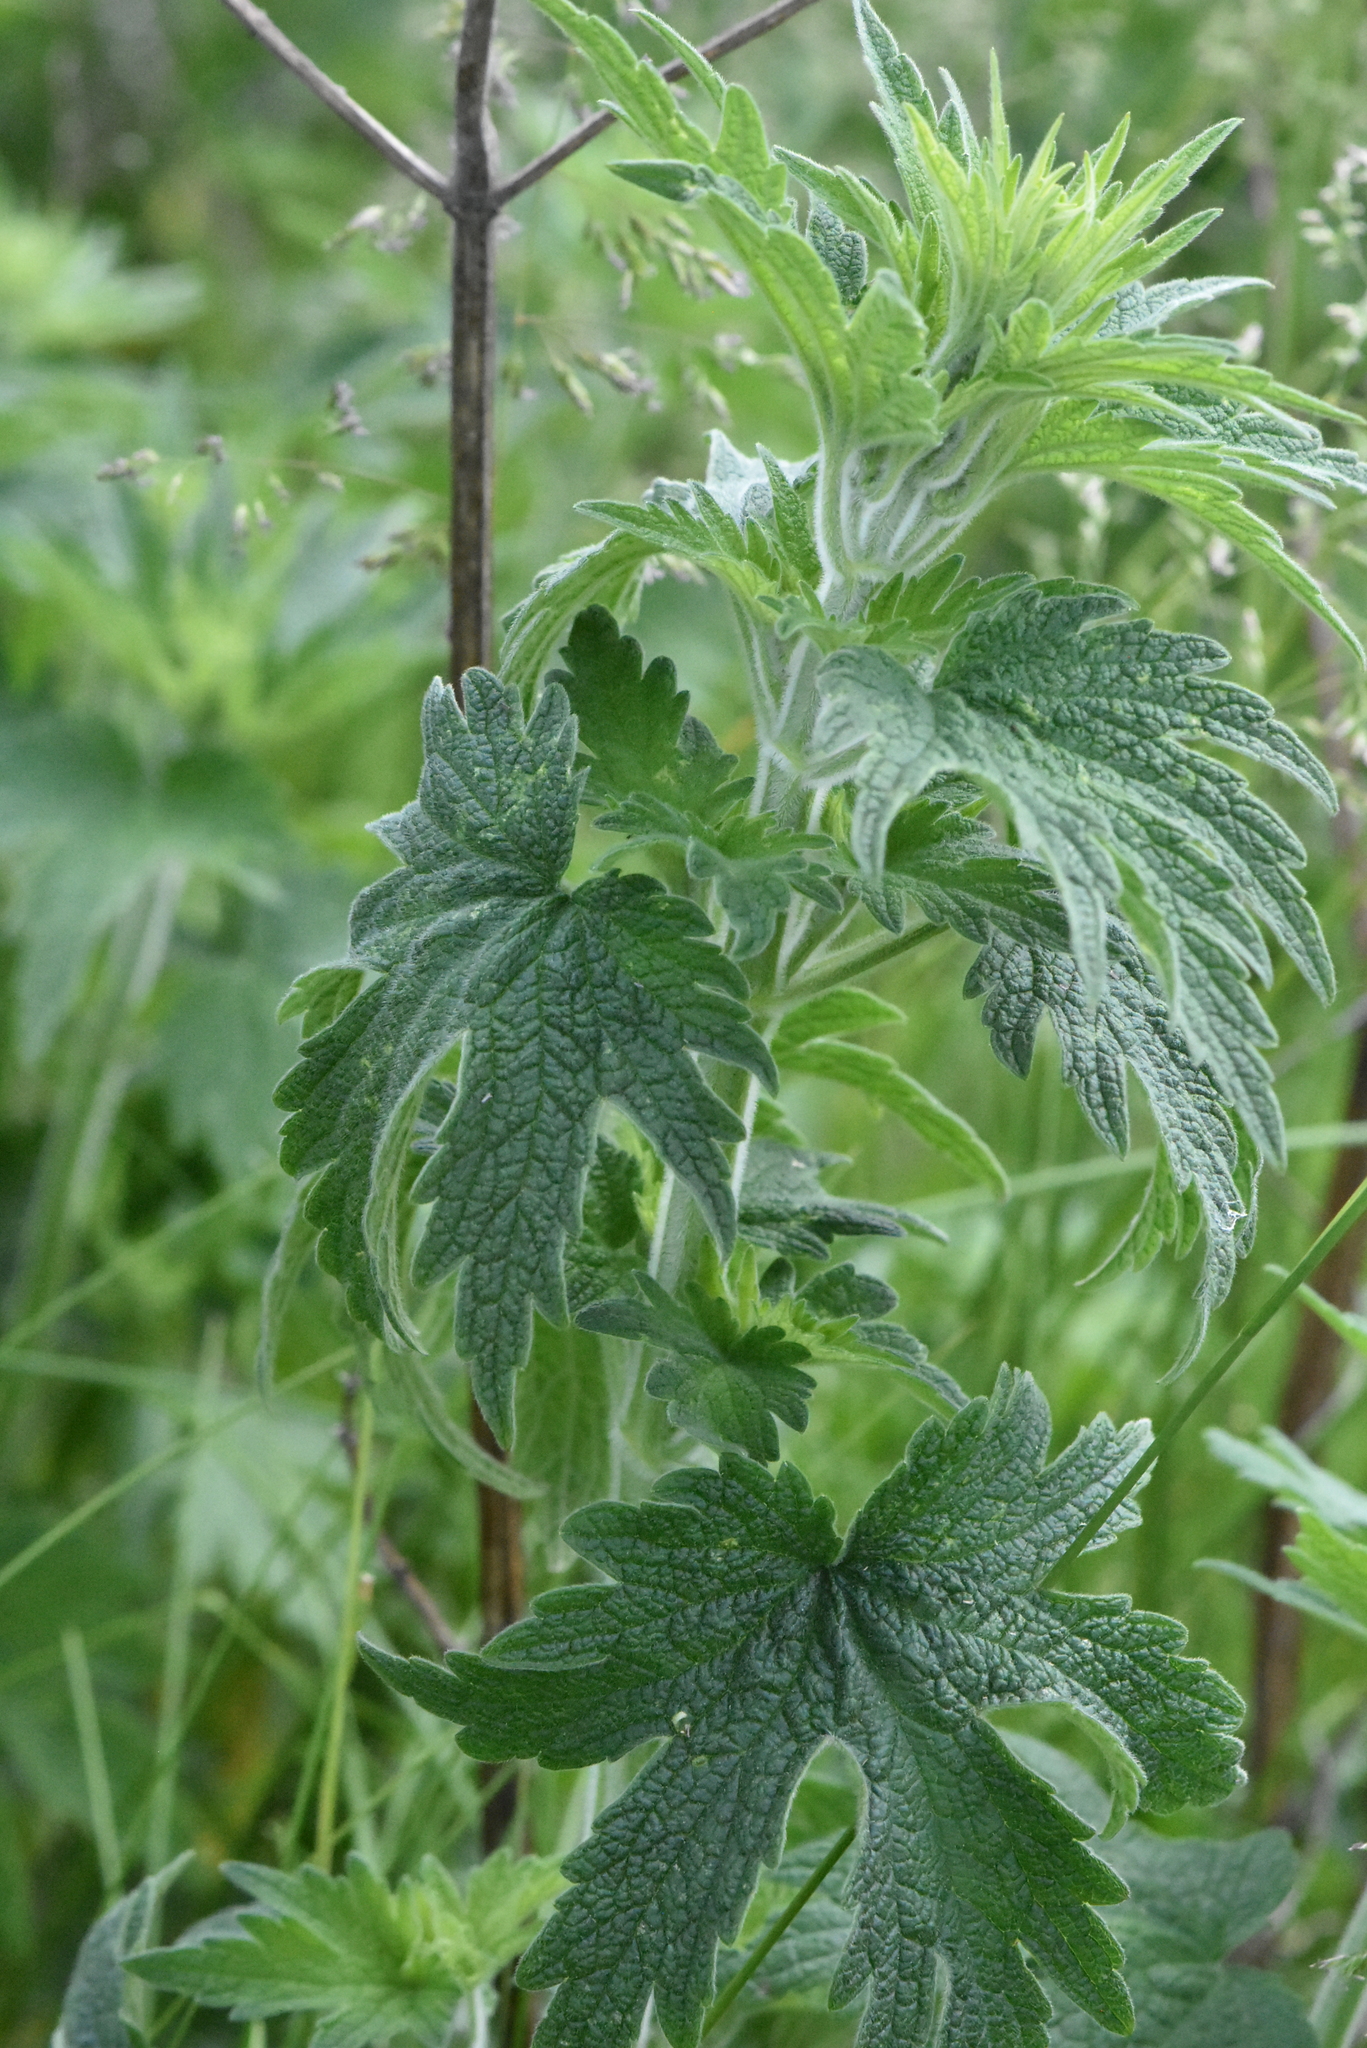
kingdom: Plantae
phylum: Tracheophyta
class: Magnoliopsida
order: Lamiales
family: Lamiaceae
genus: Leonurus
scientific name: Leonurus quinquelobatus
